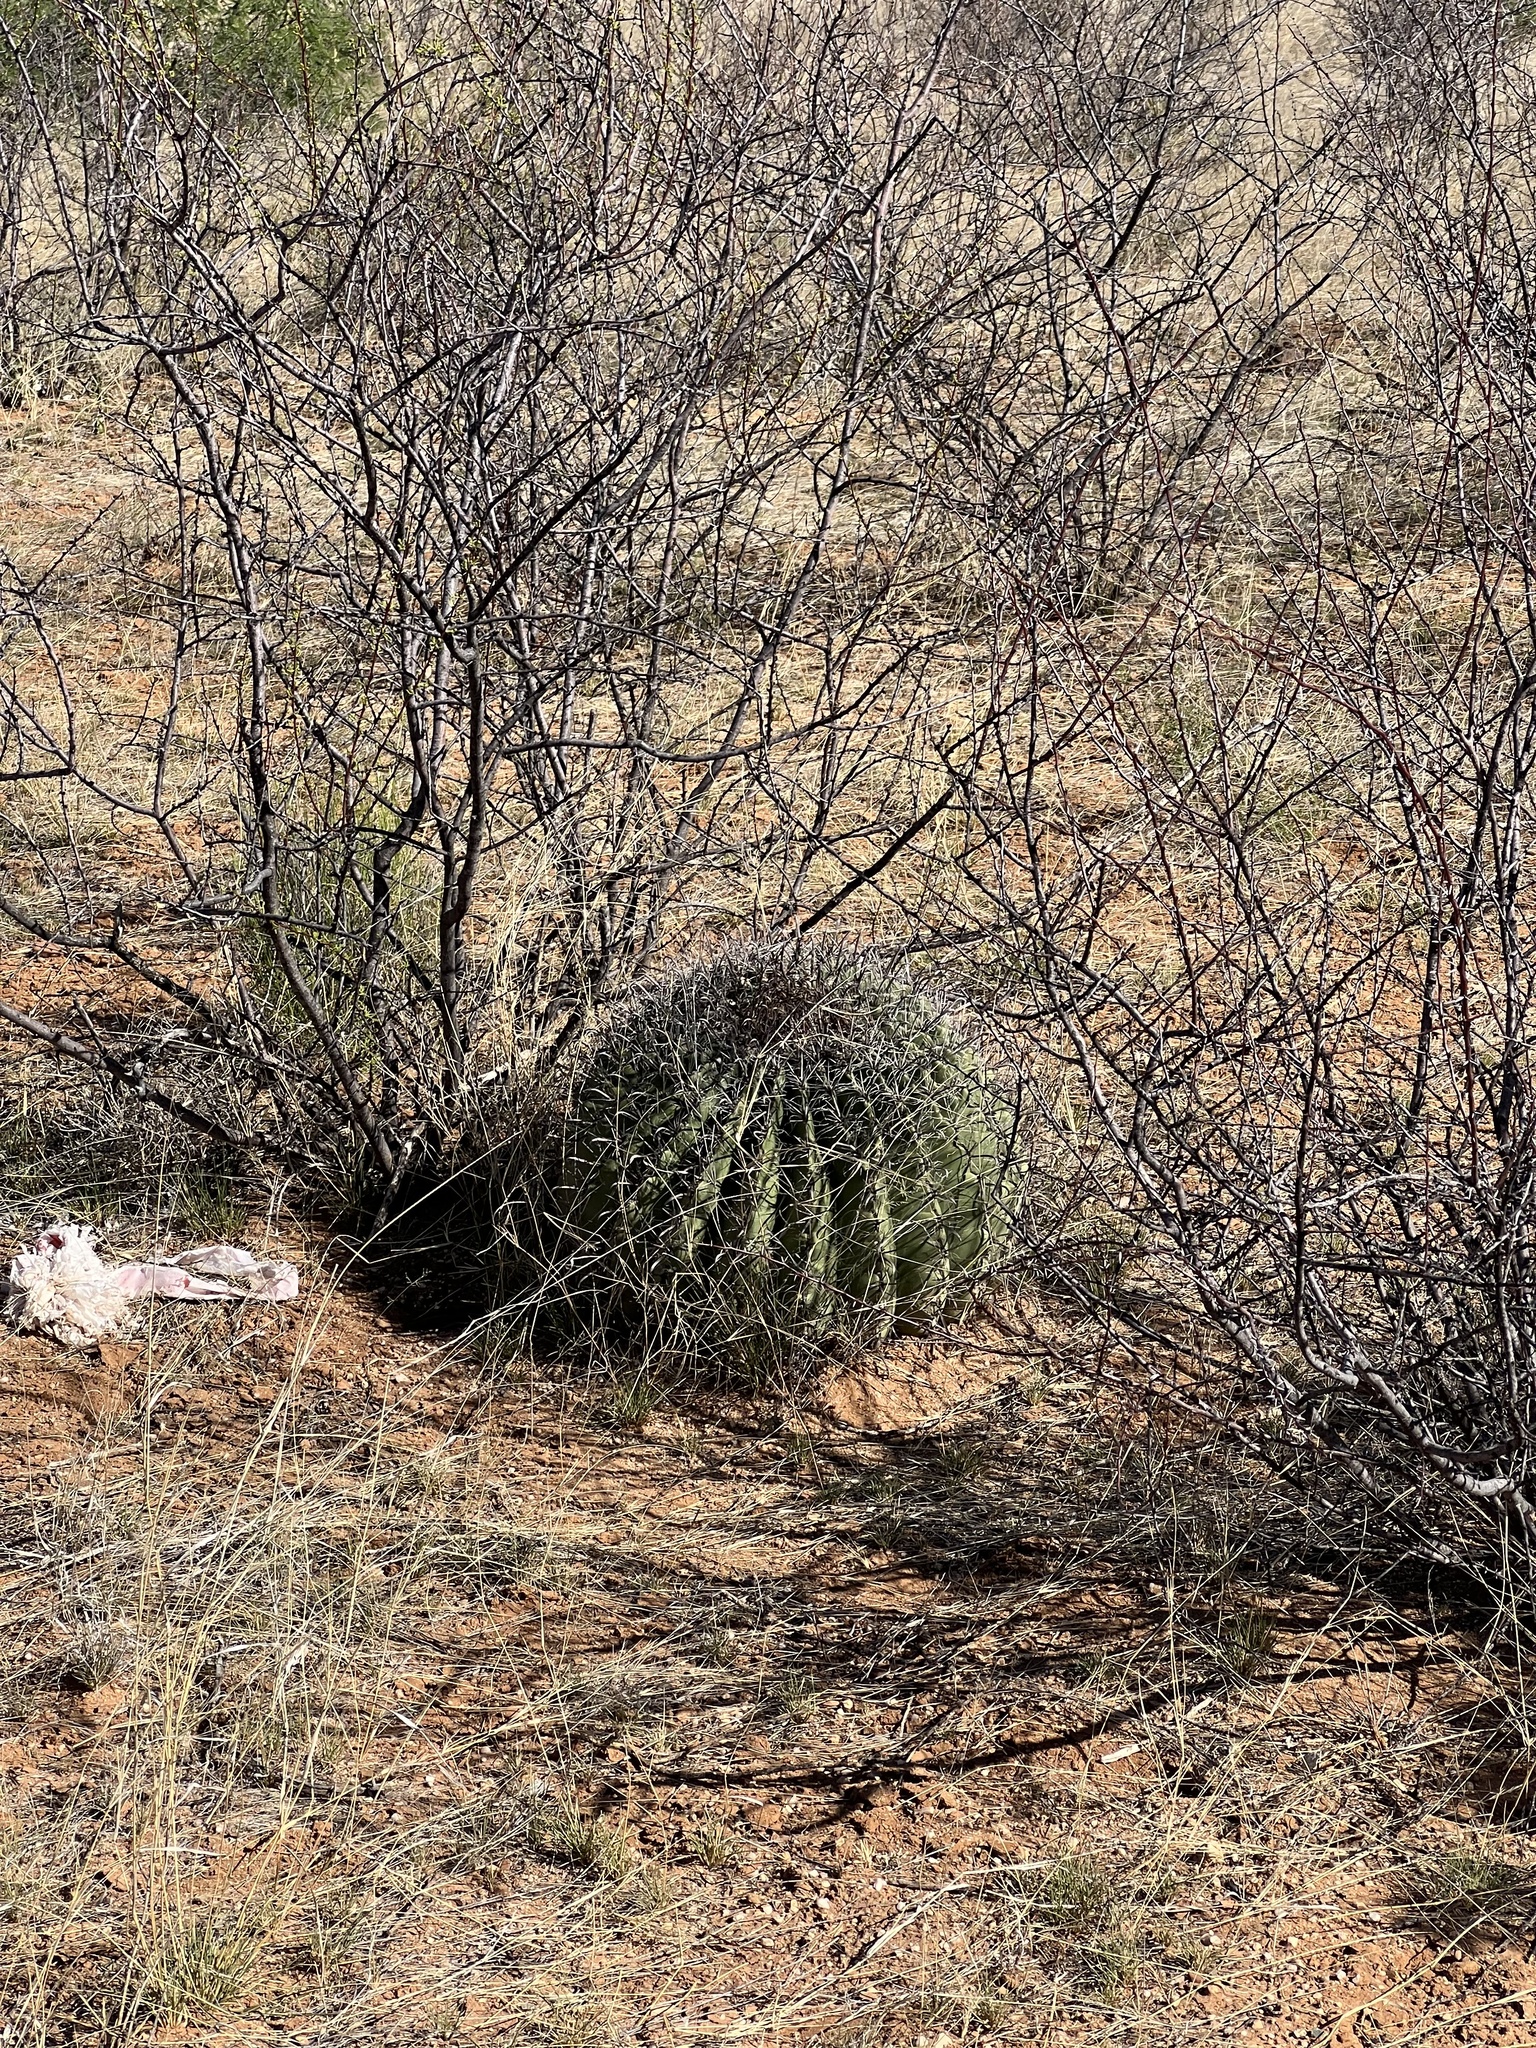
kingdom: Plantae
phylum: Tracheophyta
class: Magnoliopsida
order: Caryophyllales
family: Cactaceae
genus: Ferocactus
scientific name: Ferocactus wislizeni
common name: Candy barrel cactus
